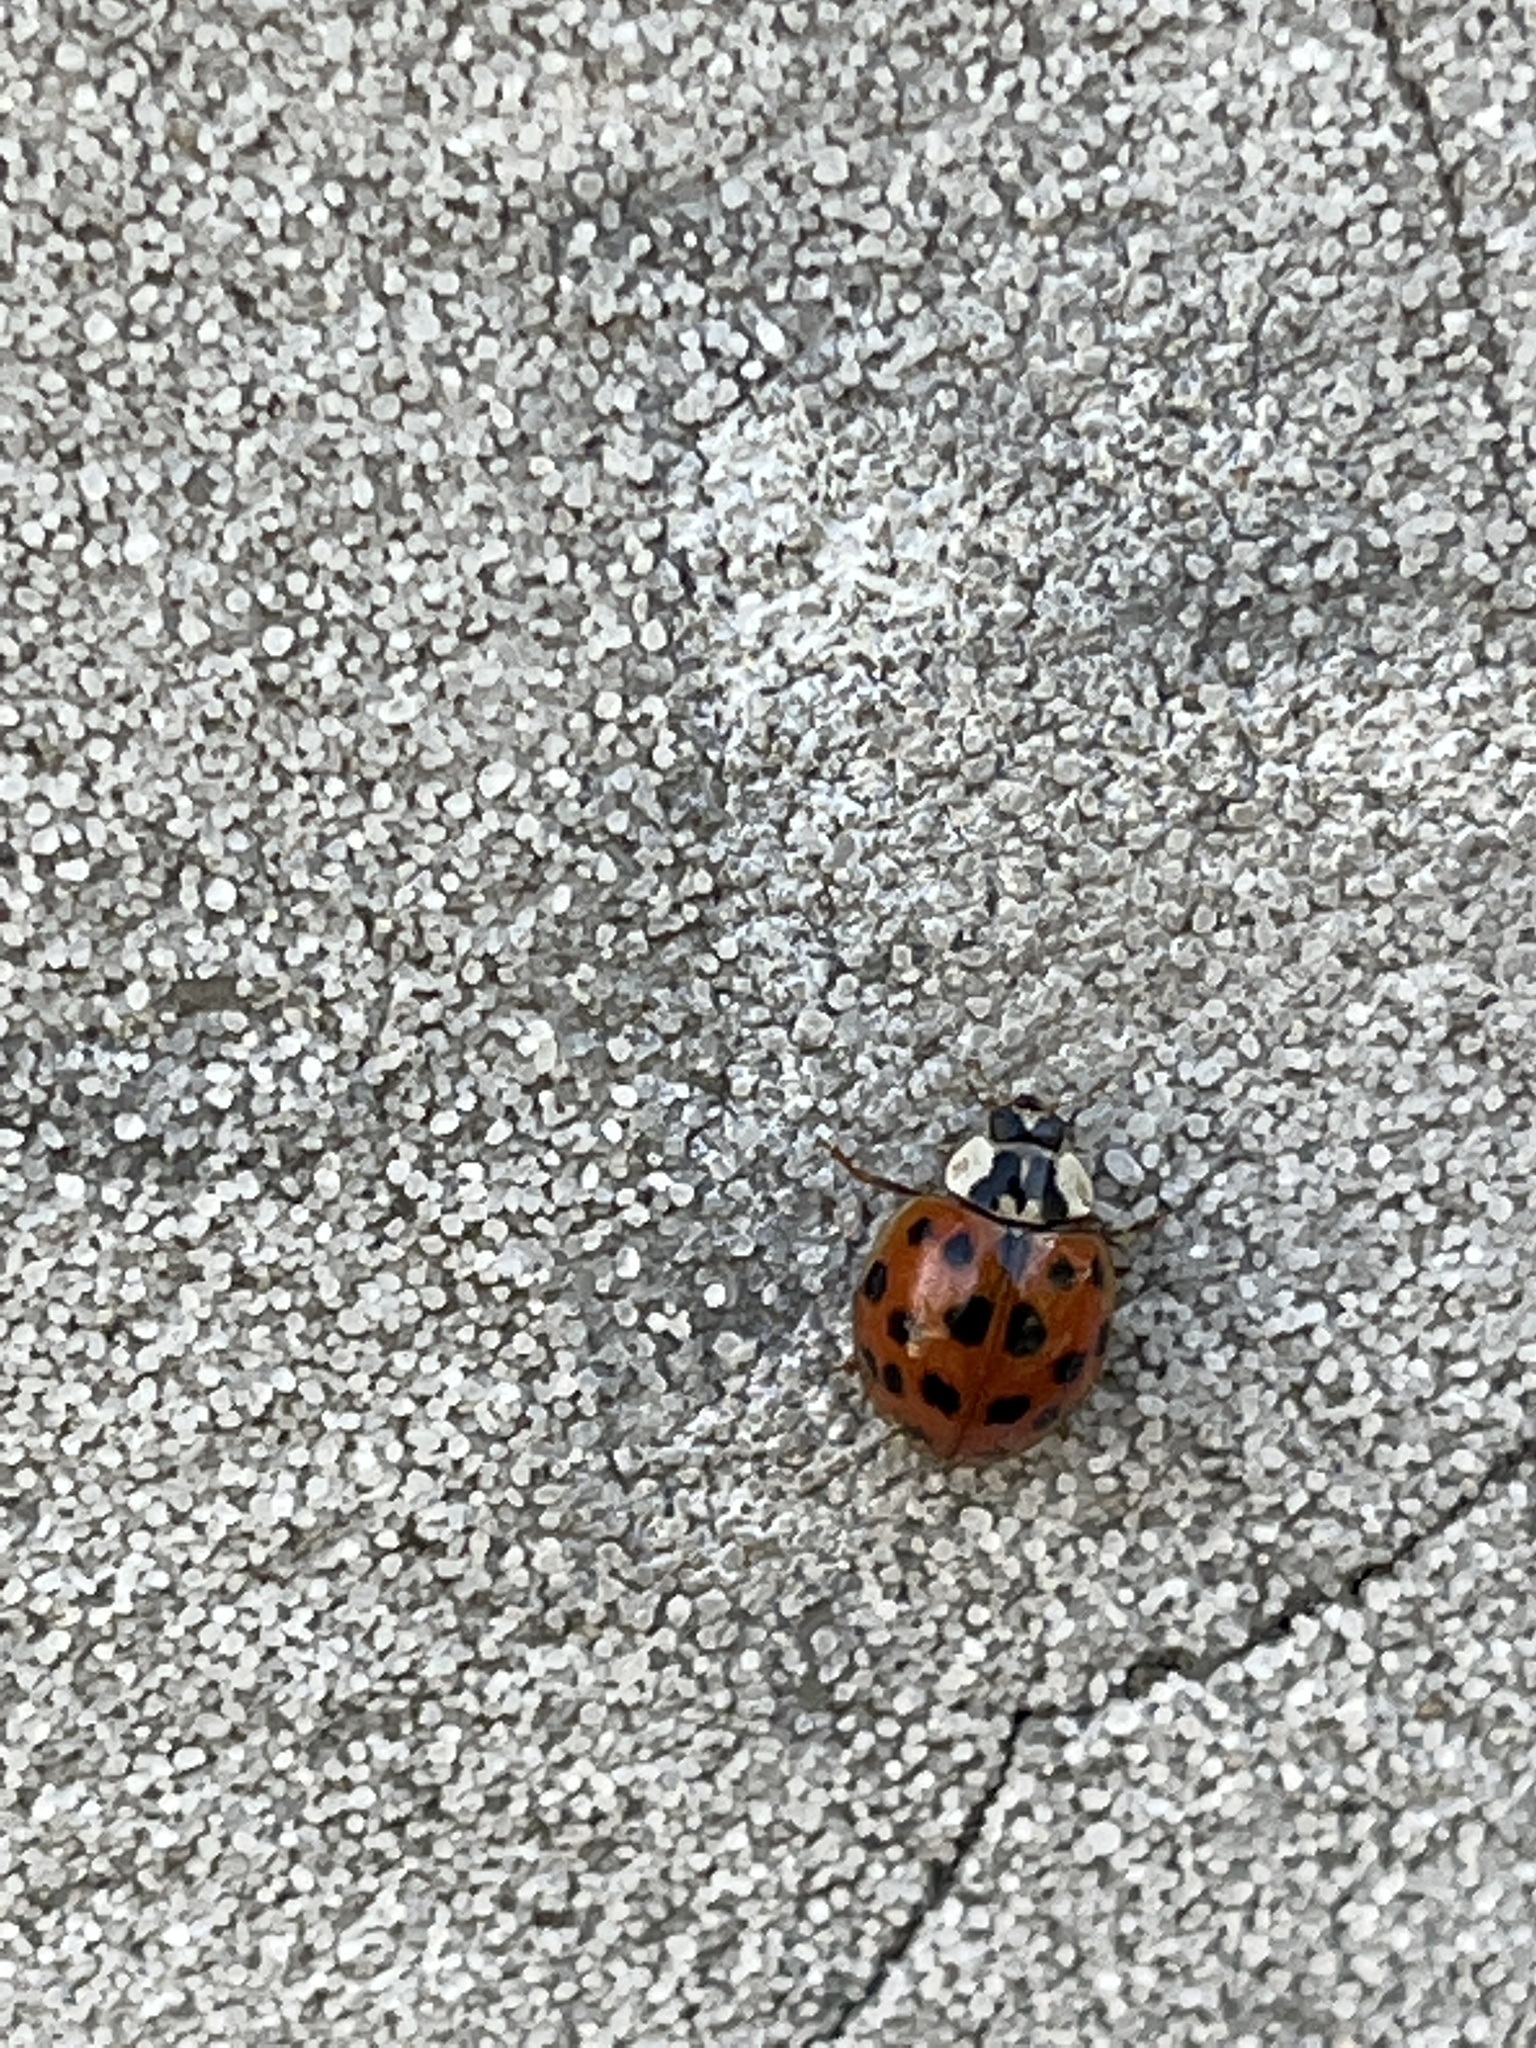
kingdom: Animalia
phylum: Arthropoda
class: Insecta
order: Coleoptera
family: Coccinellidae
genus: Harmonia
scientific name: Harmonia axyridis
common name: Harlequin ladybird
